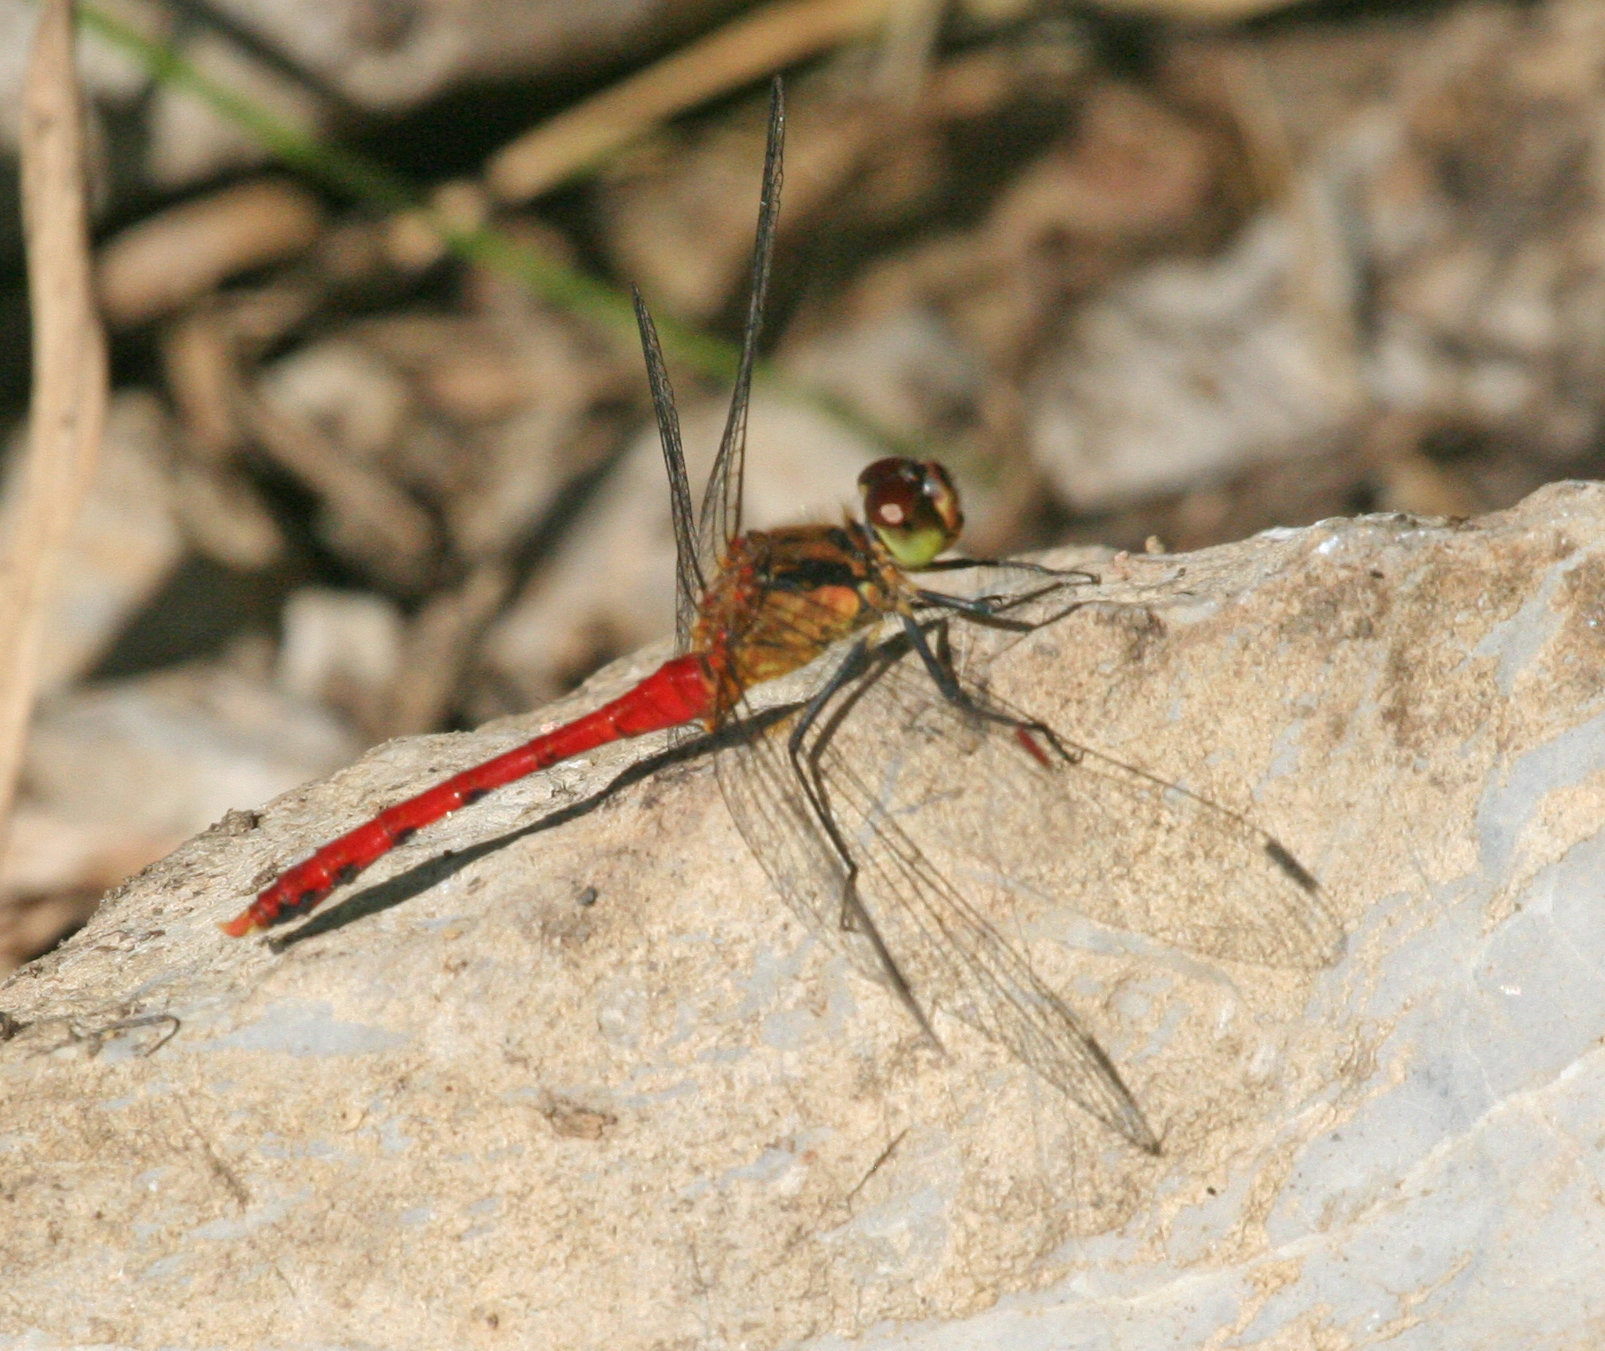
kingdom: Animalia
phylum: Arthropoda
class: Insecta
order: Odonata
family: Libellulidae
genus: Sympetrum
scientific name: Sympetrum eroticum
